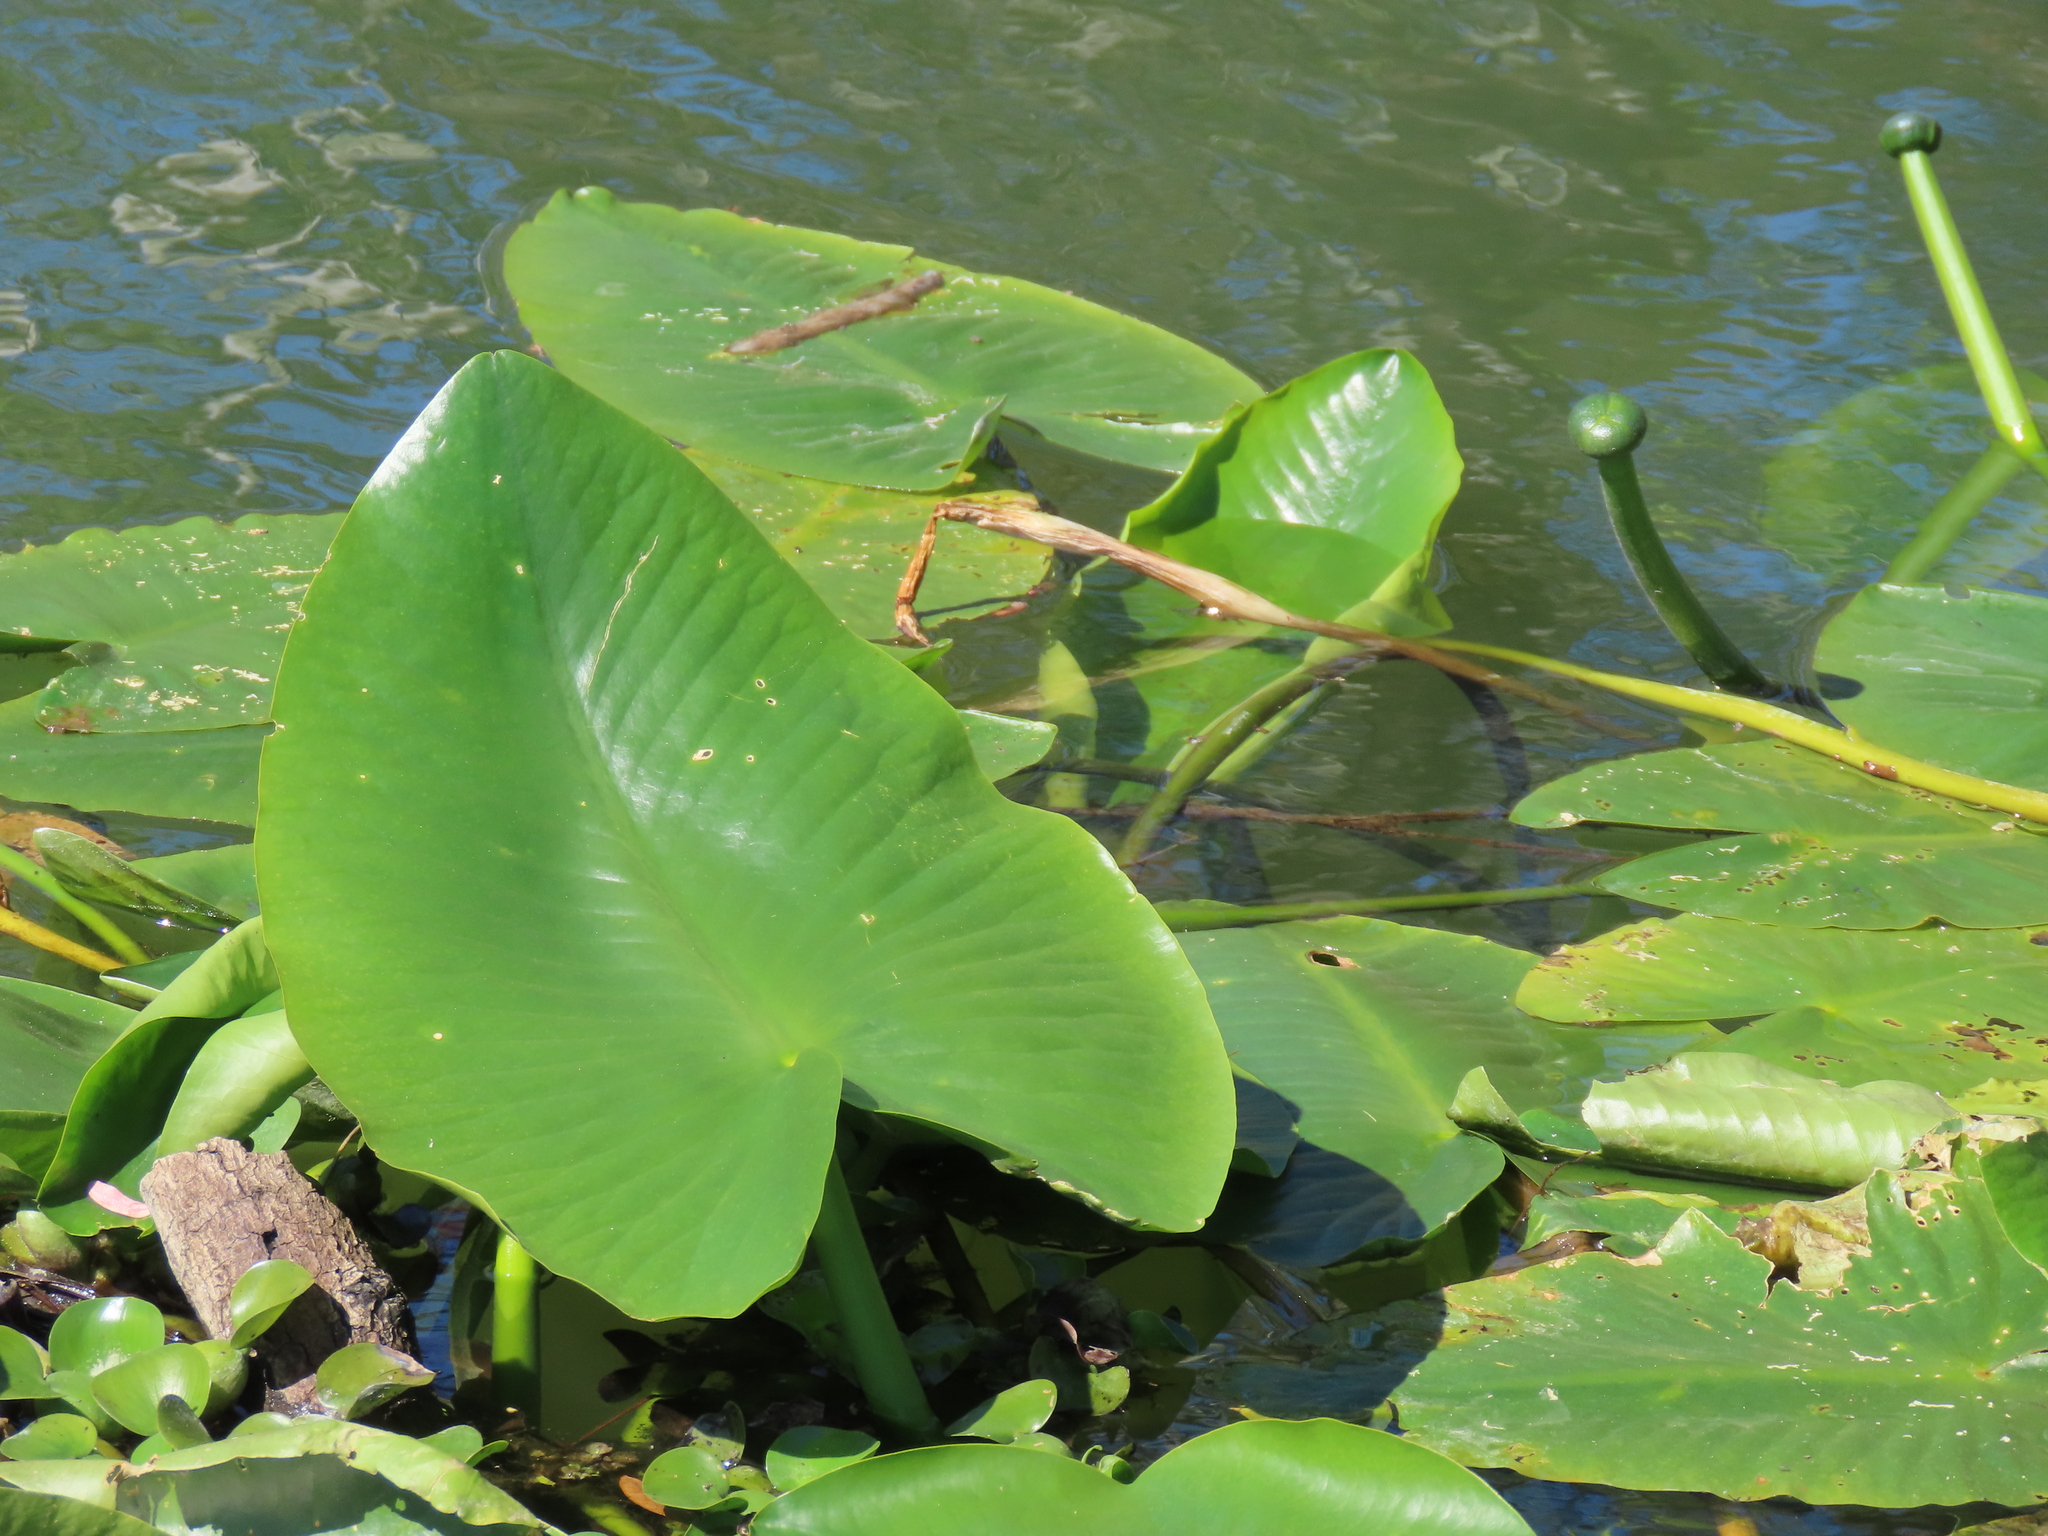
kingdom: Plantae
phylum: Tracheophyta
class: Magnoliopsida
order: Nymphaeales
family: Nymphaeaceae
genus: Nuphar
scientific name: Nuphar advena
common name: Spatter-dock
